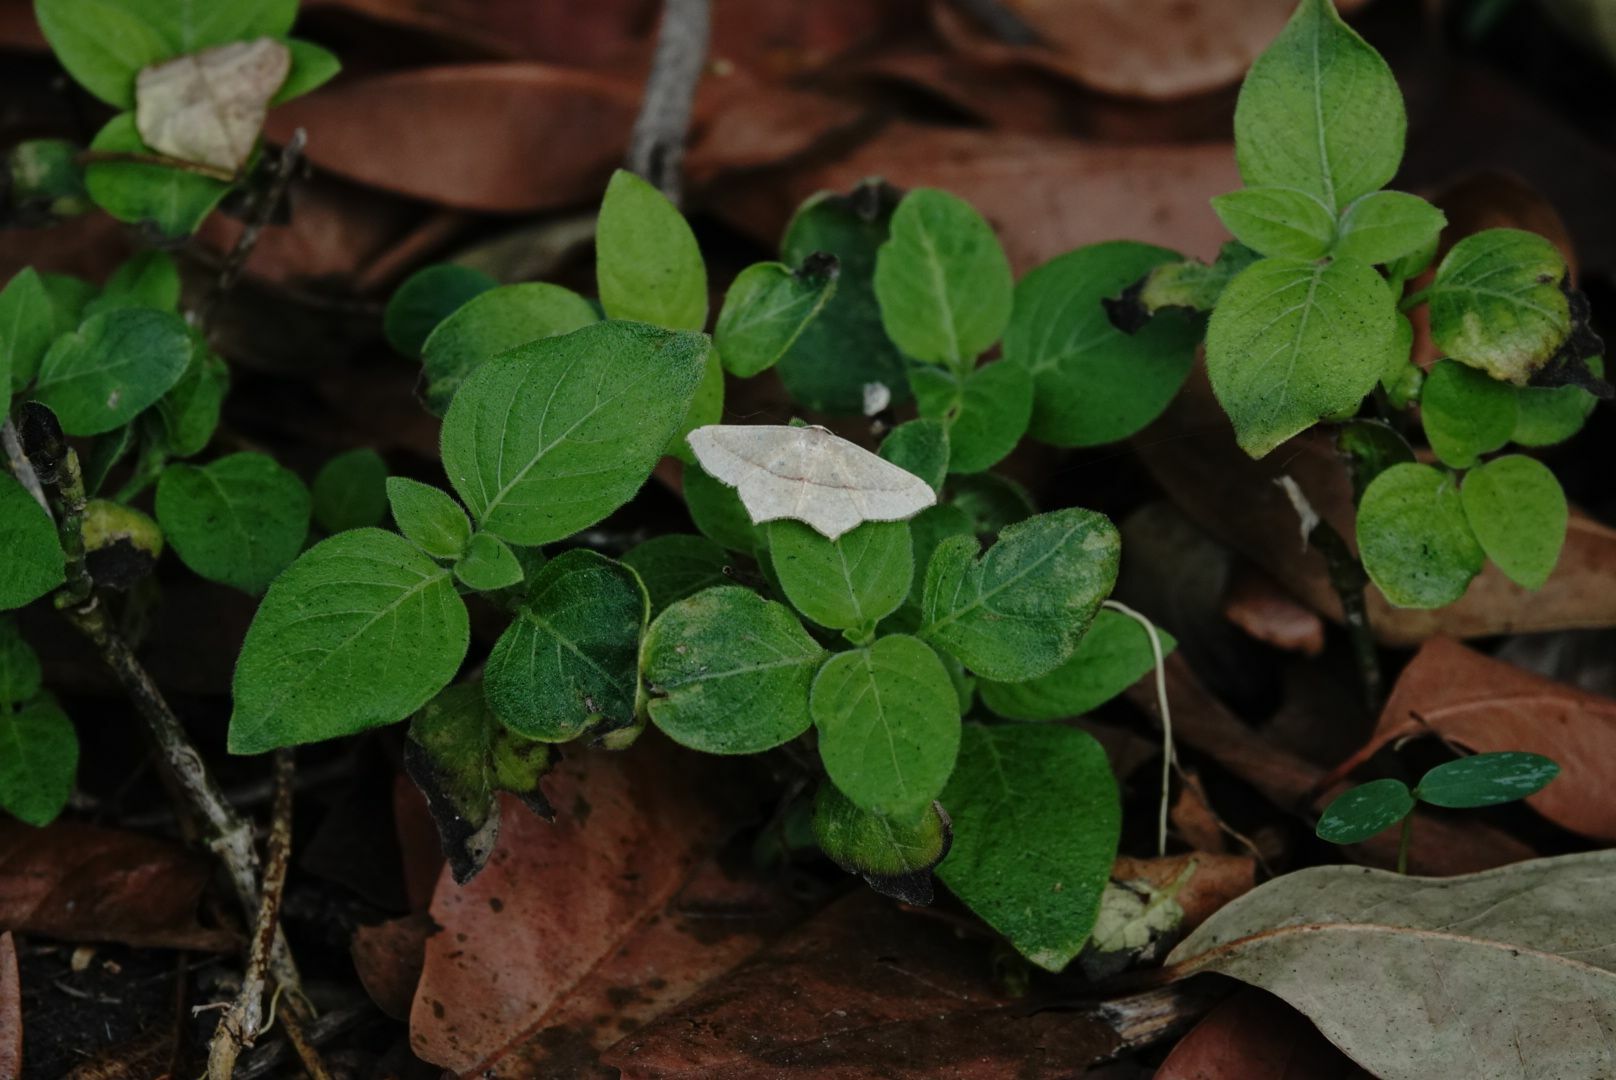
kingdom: Animalia
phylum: Arthropoda
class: Insecta
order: Lepidoptera
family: Geometridae
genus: Traminda
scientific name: Traminda mundissima
